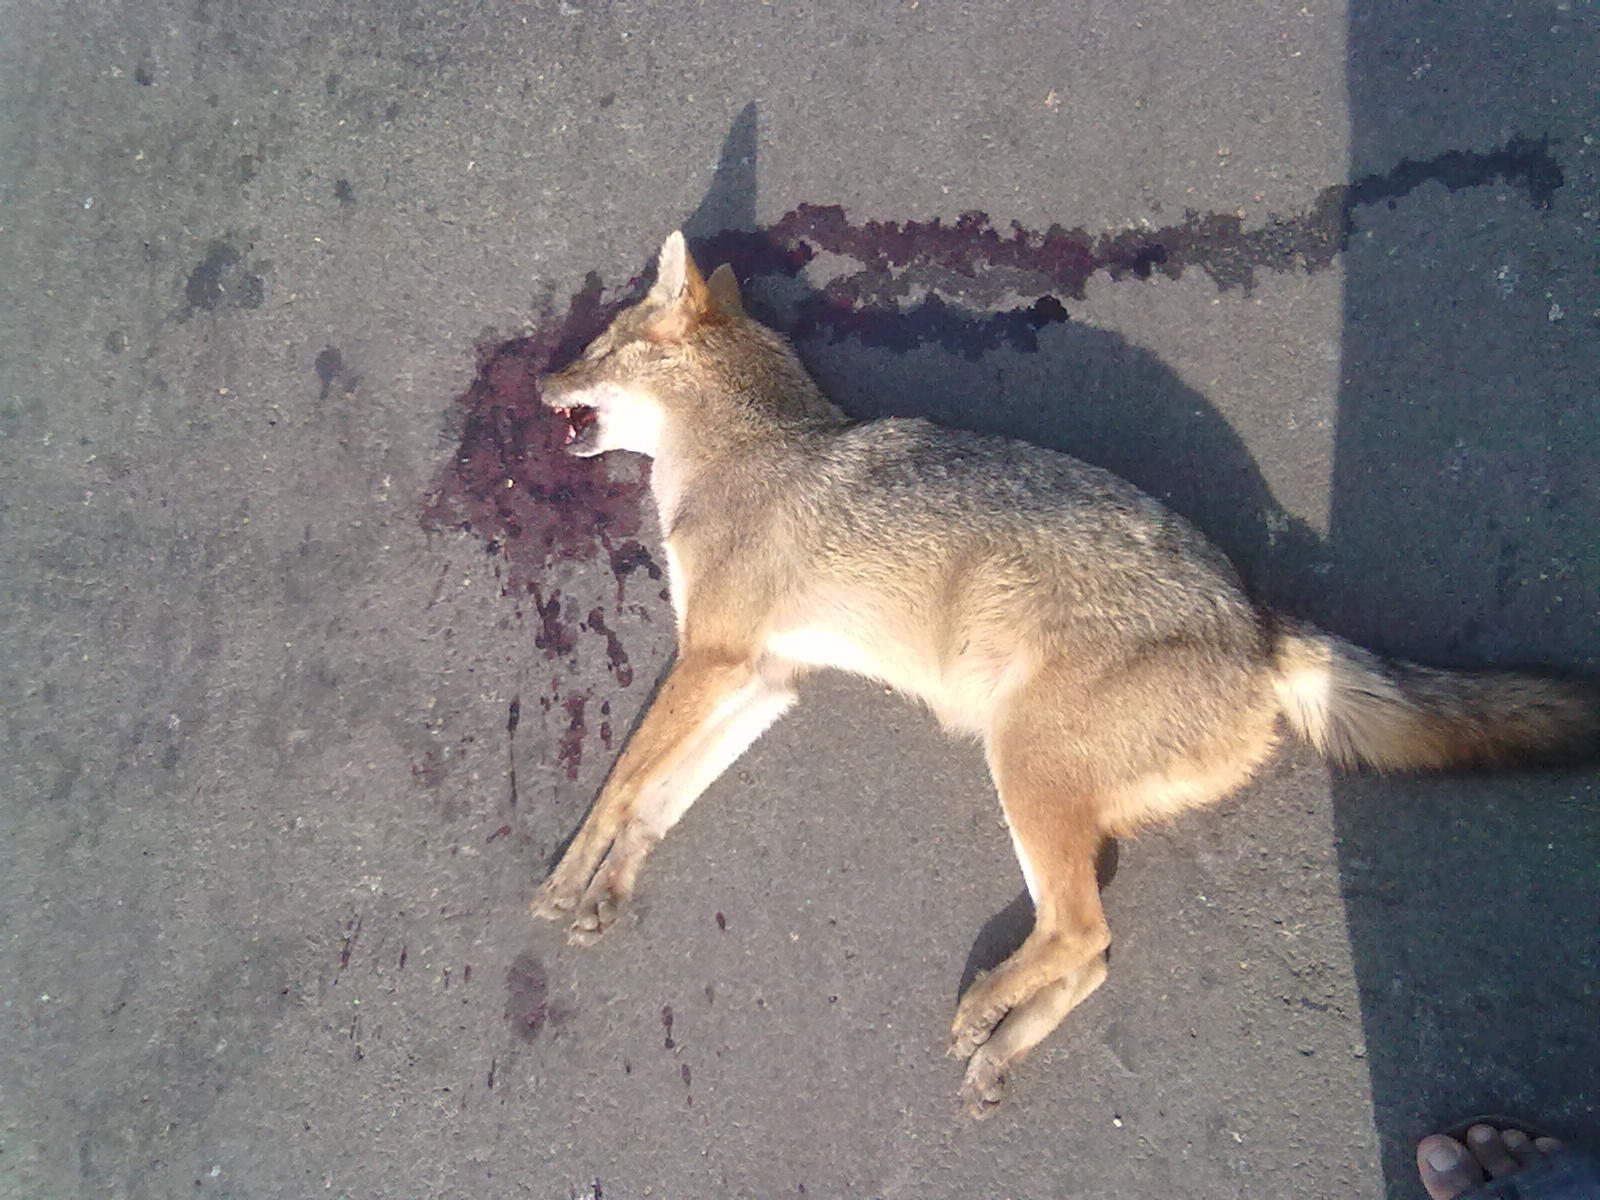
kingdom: Animalia
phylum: Chordata
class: Mammalia
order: Carnivora
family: Canidae
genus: Canis
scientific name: Canis aureus
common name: Golden jackal
